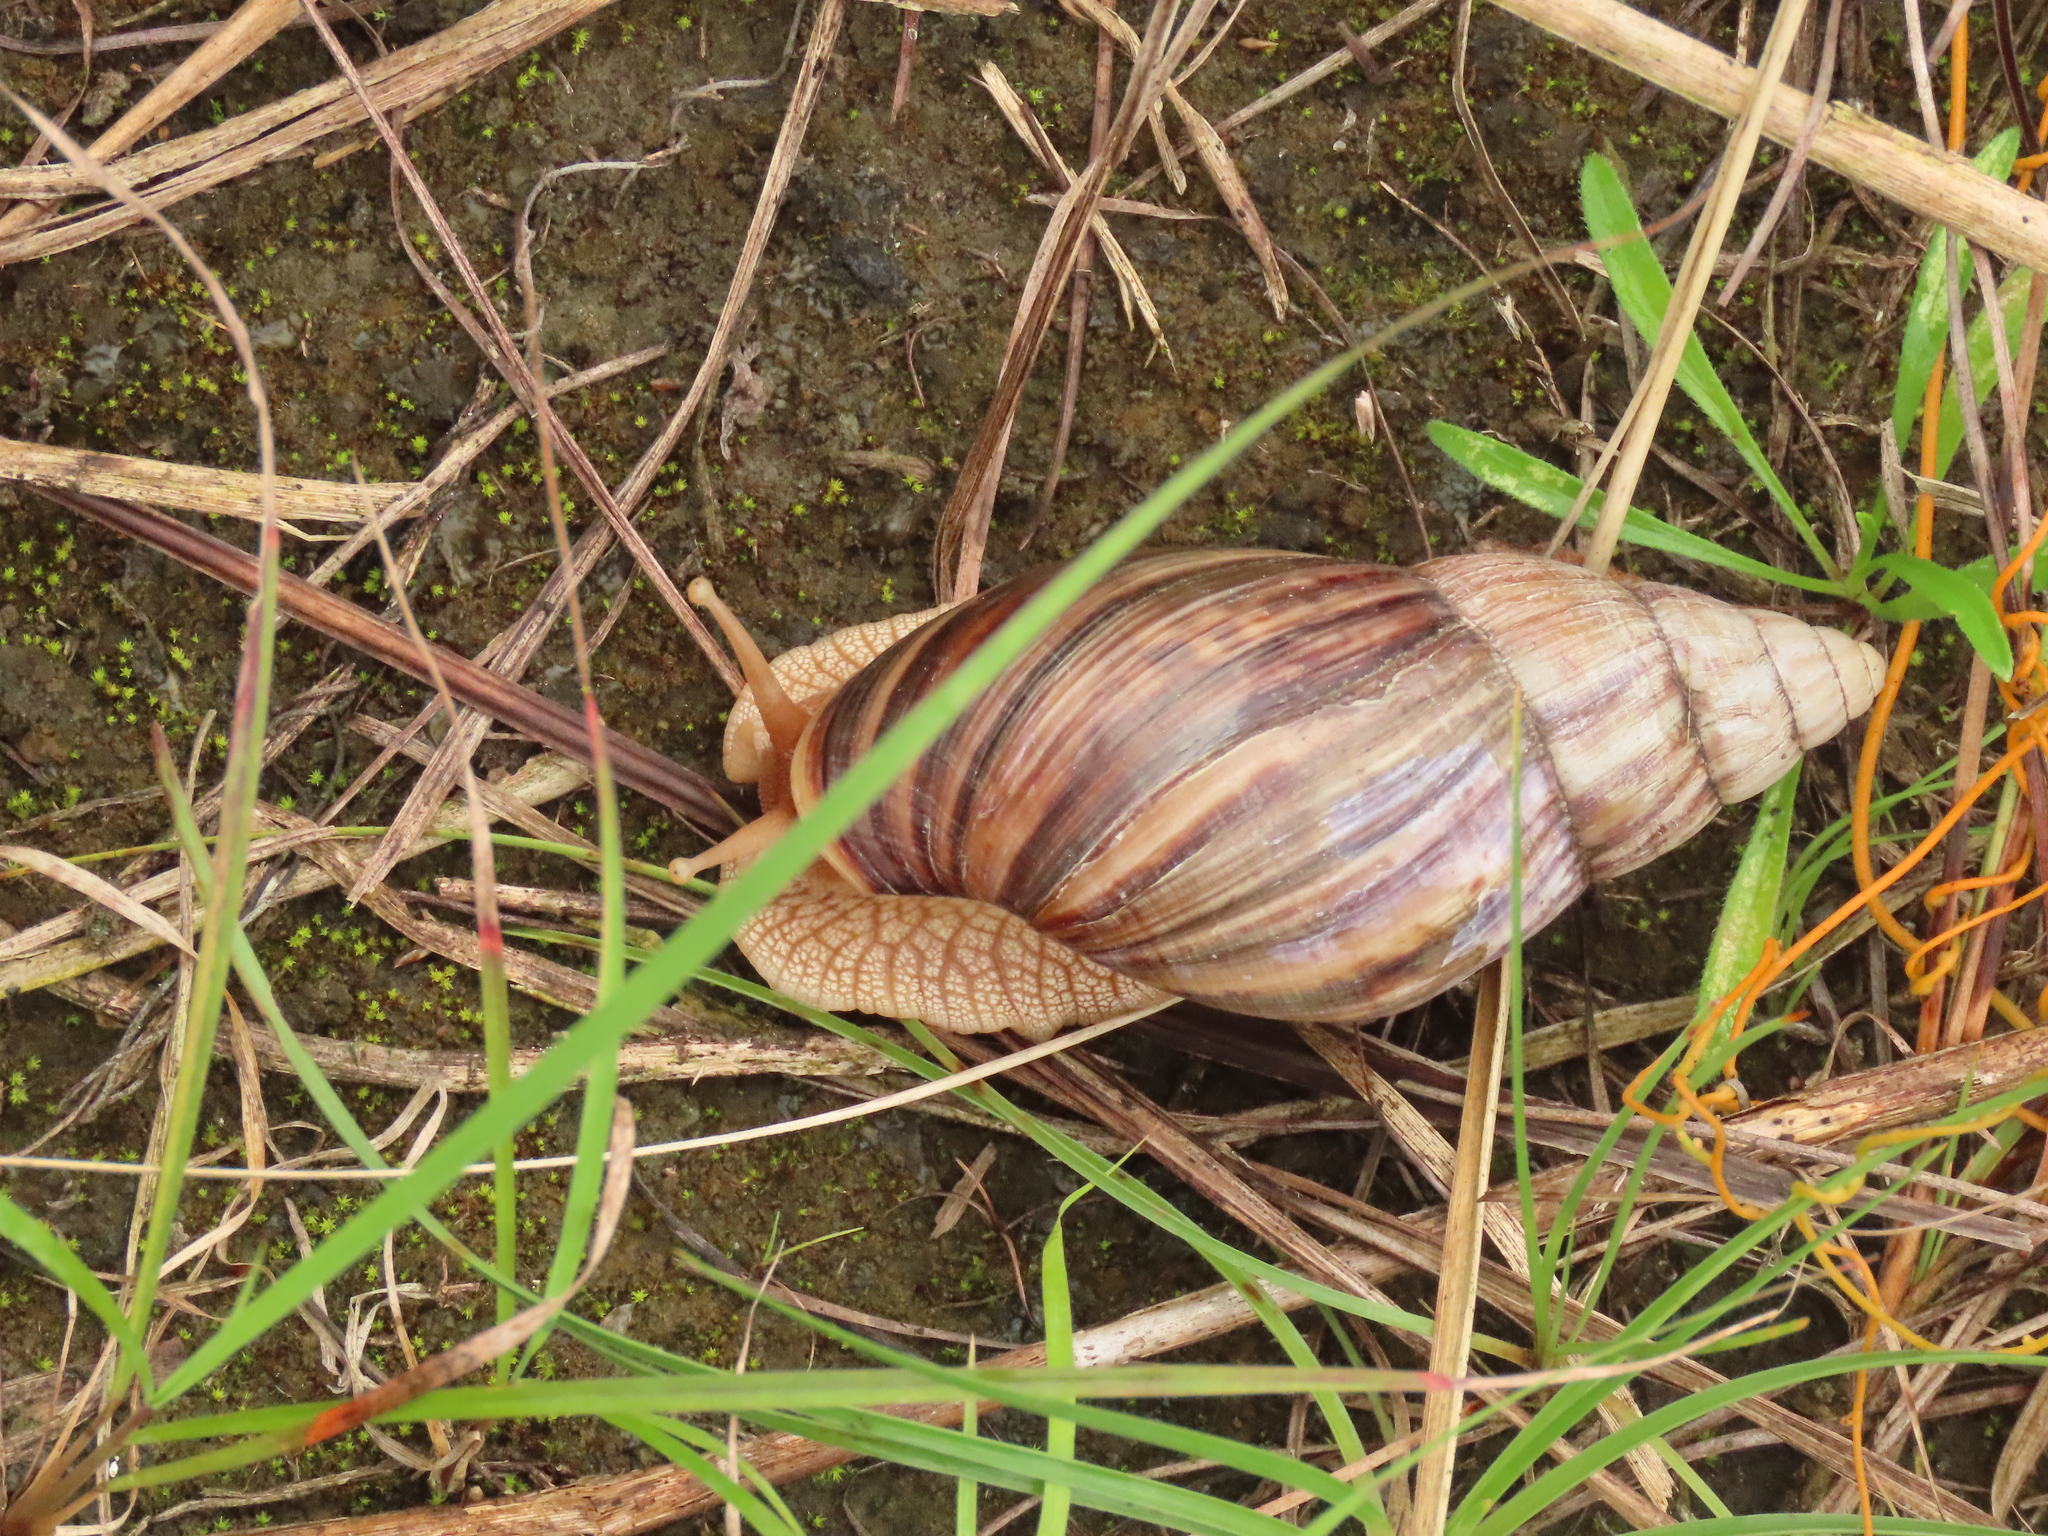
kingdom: Animalia
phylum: Mollusca
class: Gastropoda
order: Stylommatophora
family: Achatinidae
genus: Lissachatina
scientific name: Lissachatina immaculata
